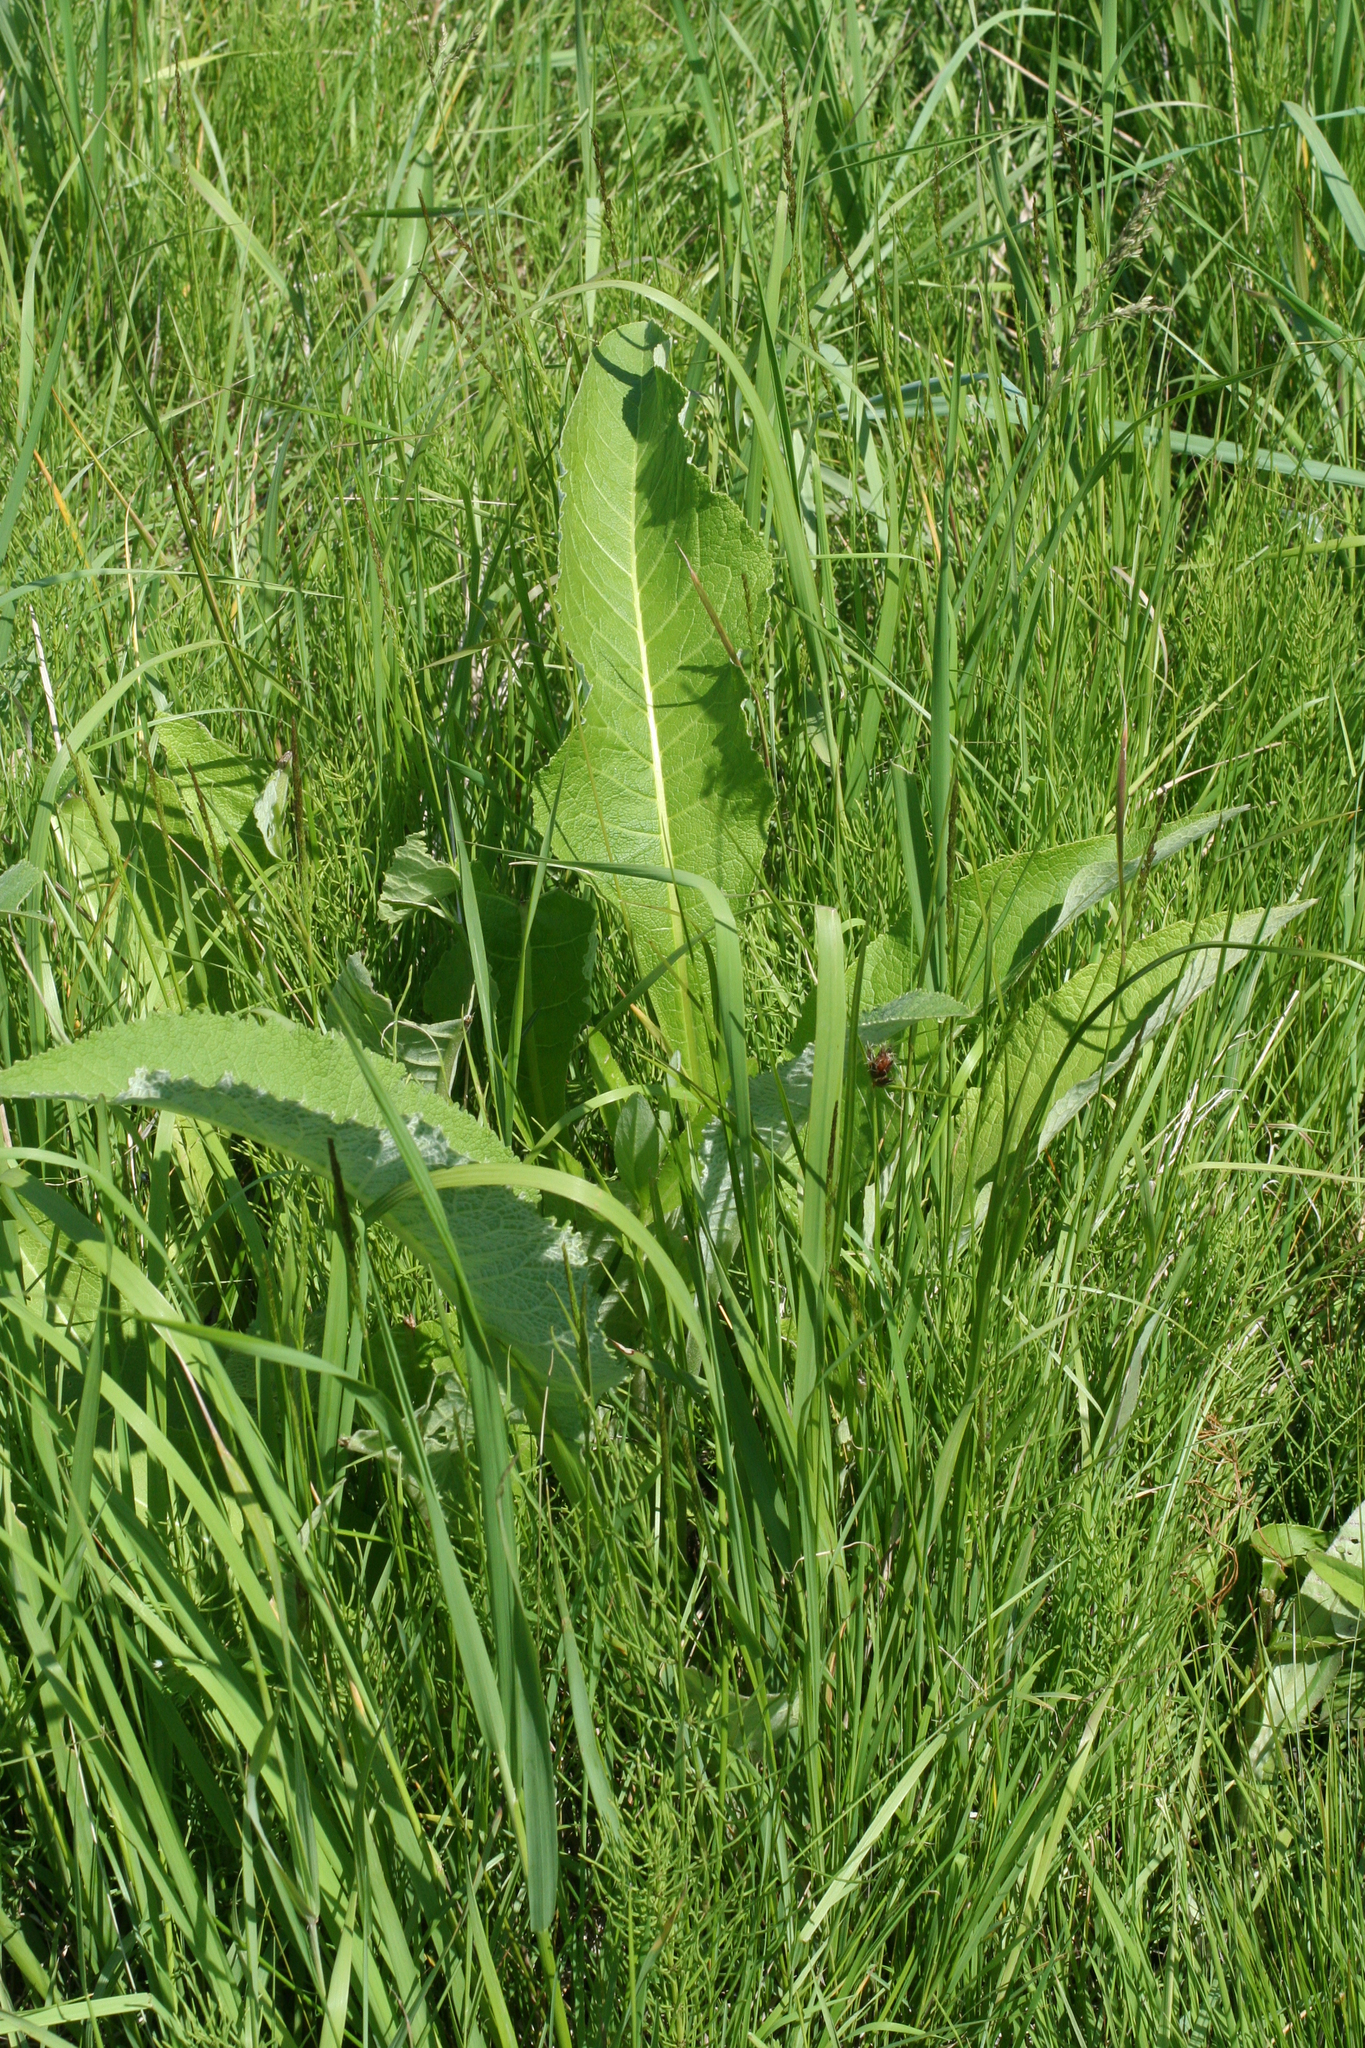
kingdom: Plantae
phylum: Tracheophyta
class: Magnoliopsida
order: Asterales
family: Asteraceae
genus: Inula
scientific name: Inula helenium
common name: Elecampane
